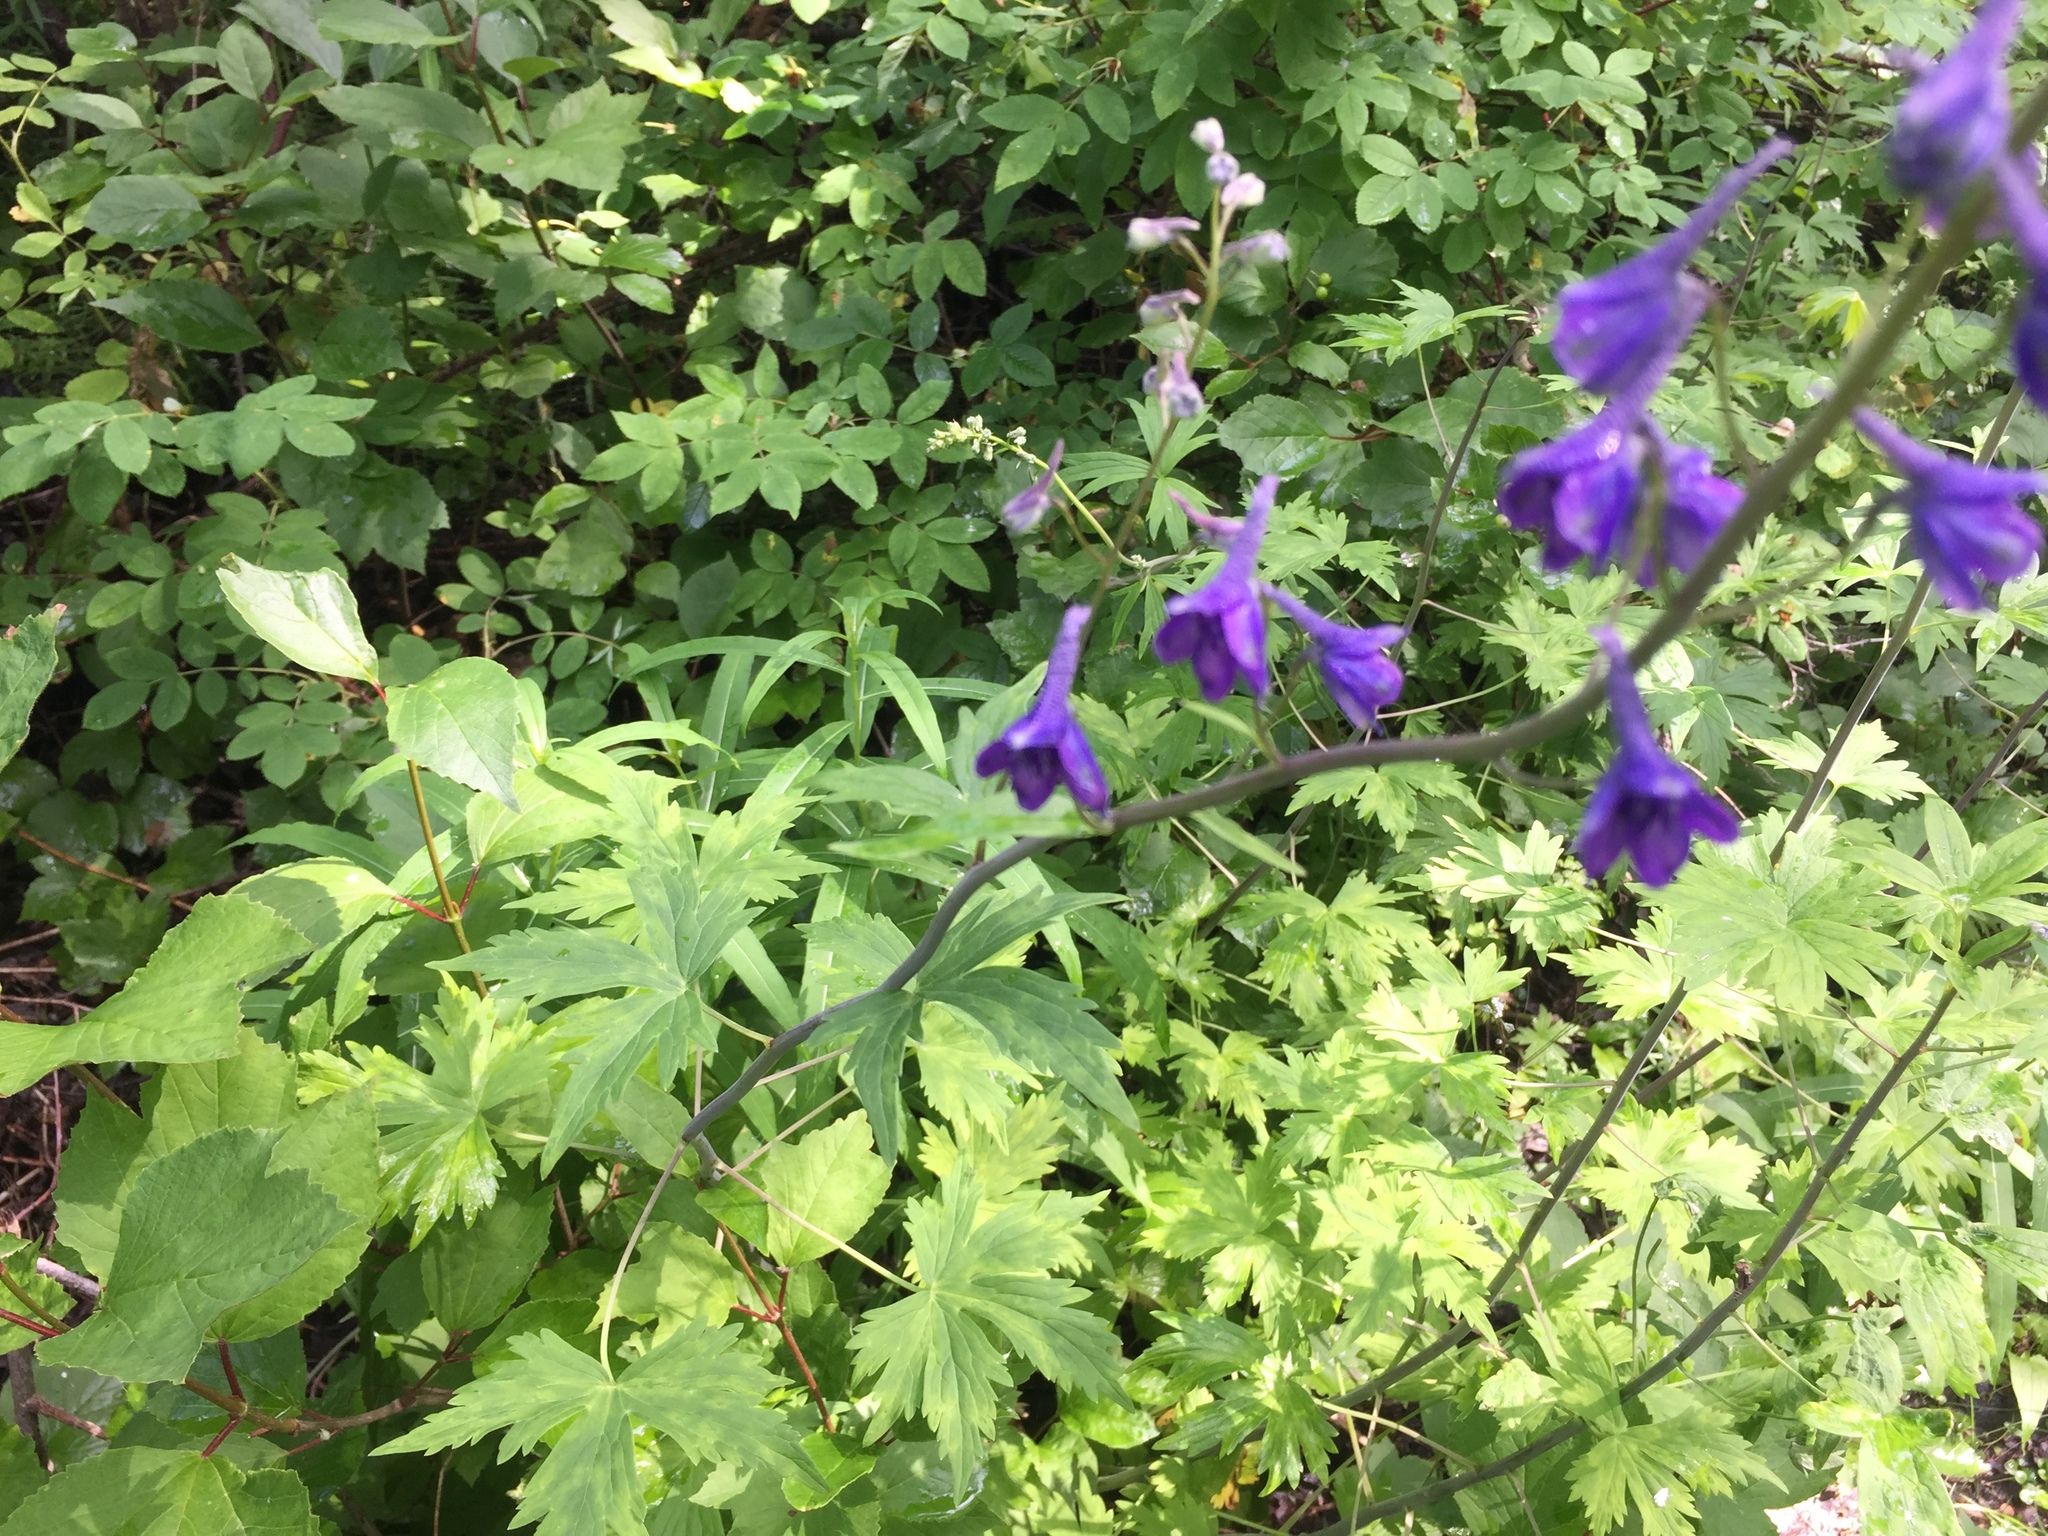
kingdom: Plantae
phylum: Tracheophyta
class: Magnoliopsida
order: Ranunculales
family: Ranunculaceae
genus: Delphinium
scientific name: Delphinium glaucum
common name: Brown's larkspur
